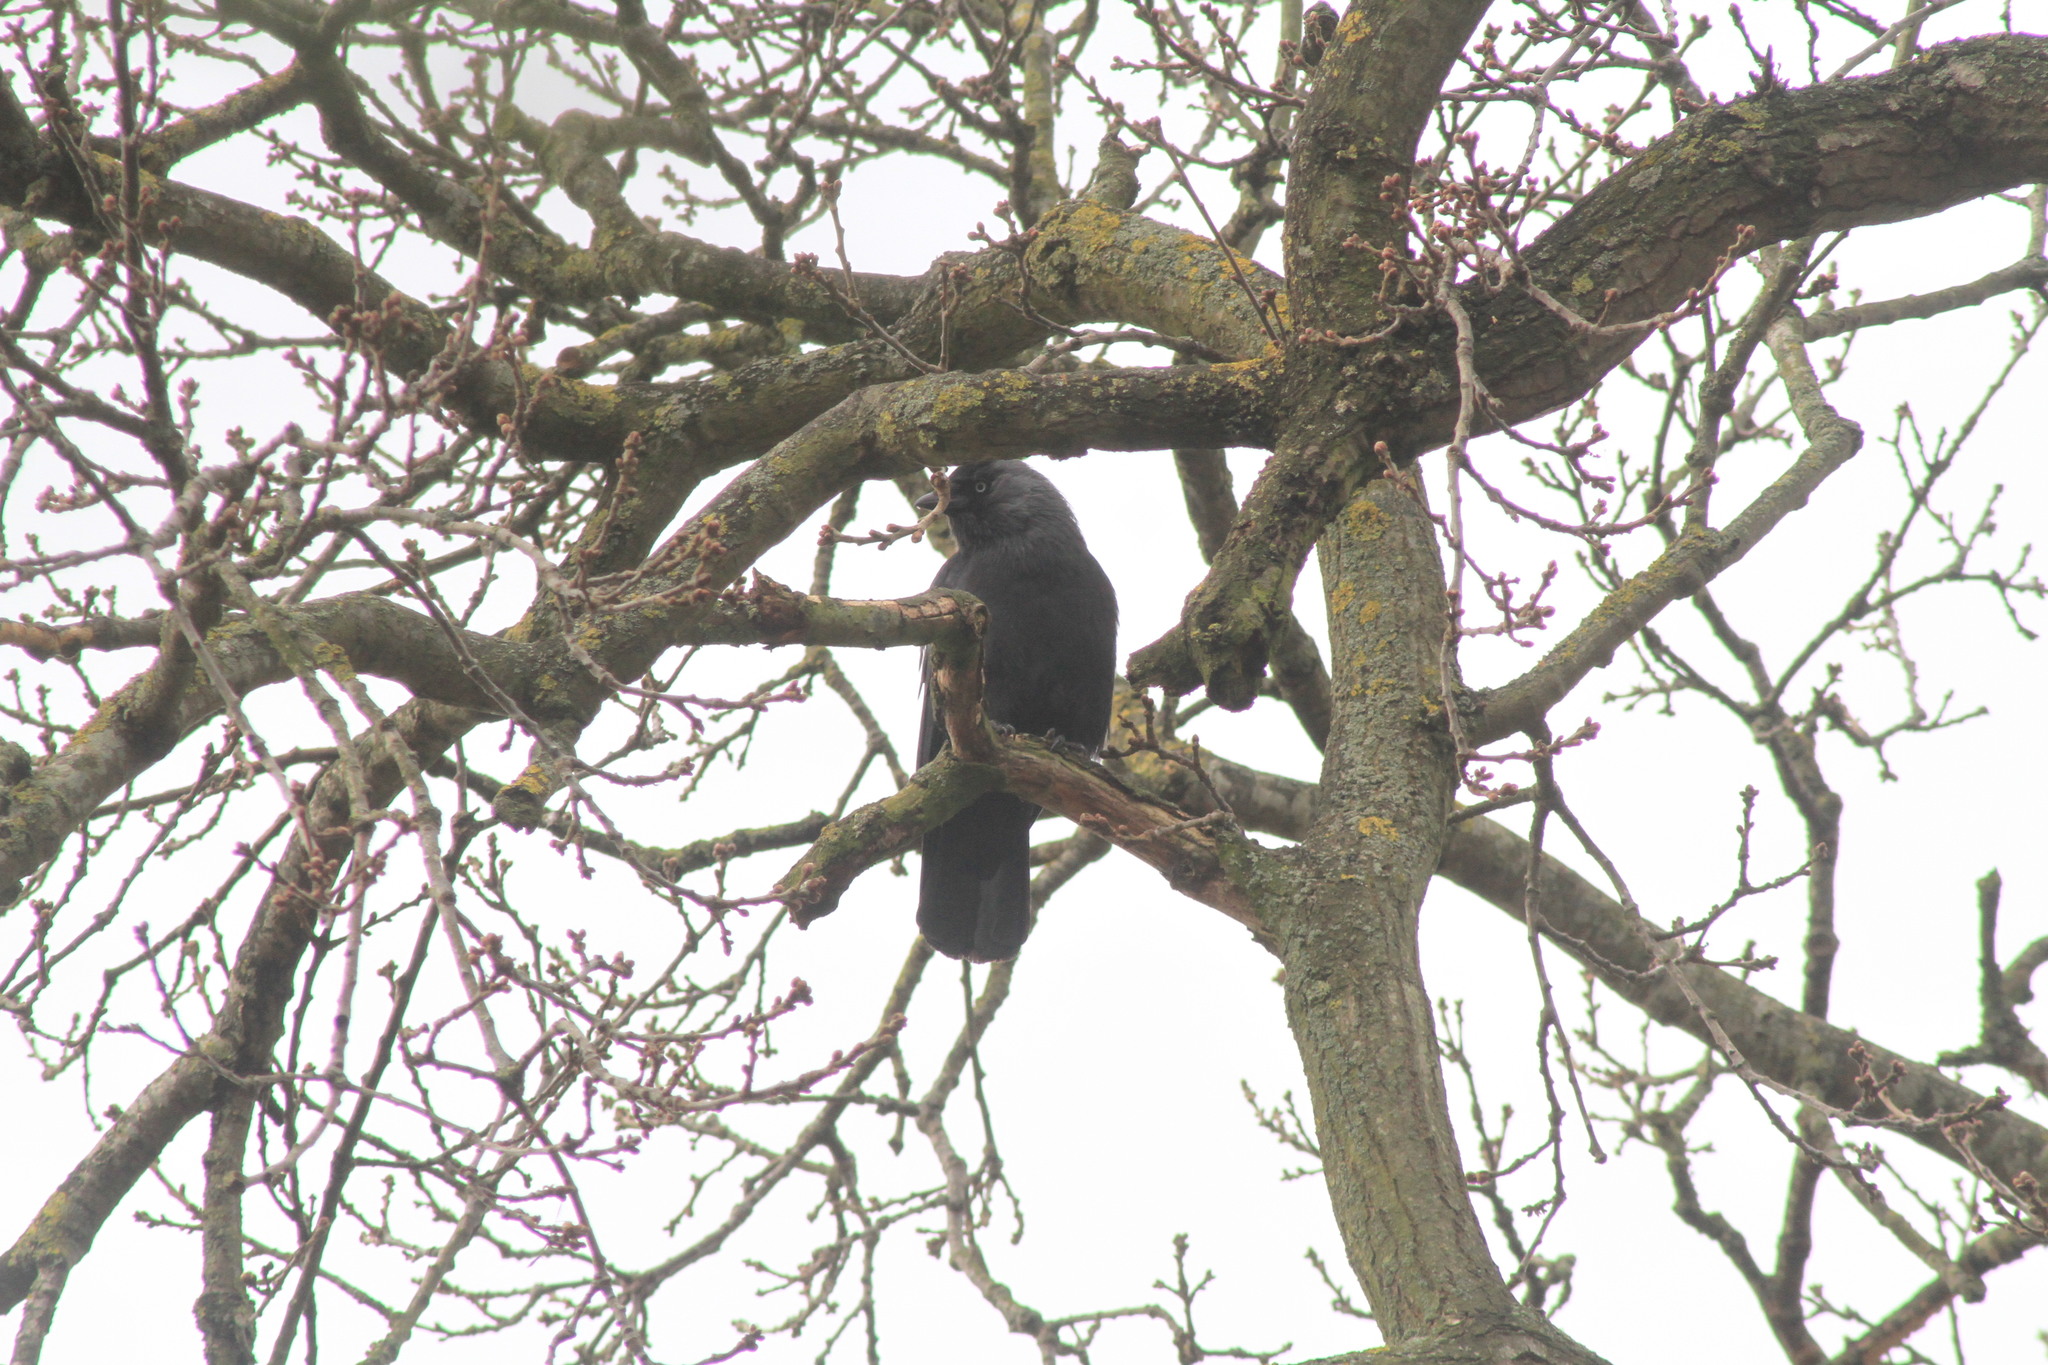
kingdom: Animalia
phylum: Chordata
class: Aves
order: Passeriformes
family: Corvidae
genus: Coloeus
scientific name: Coloeus monedula
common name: Western jackdaw
